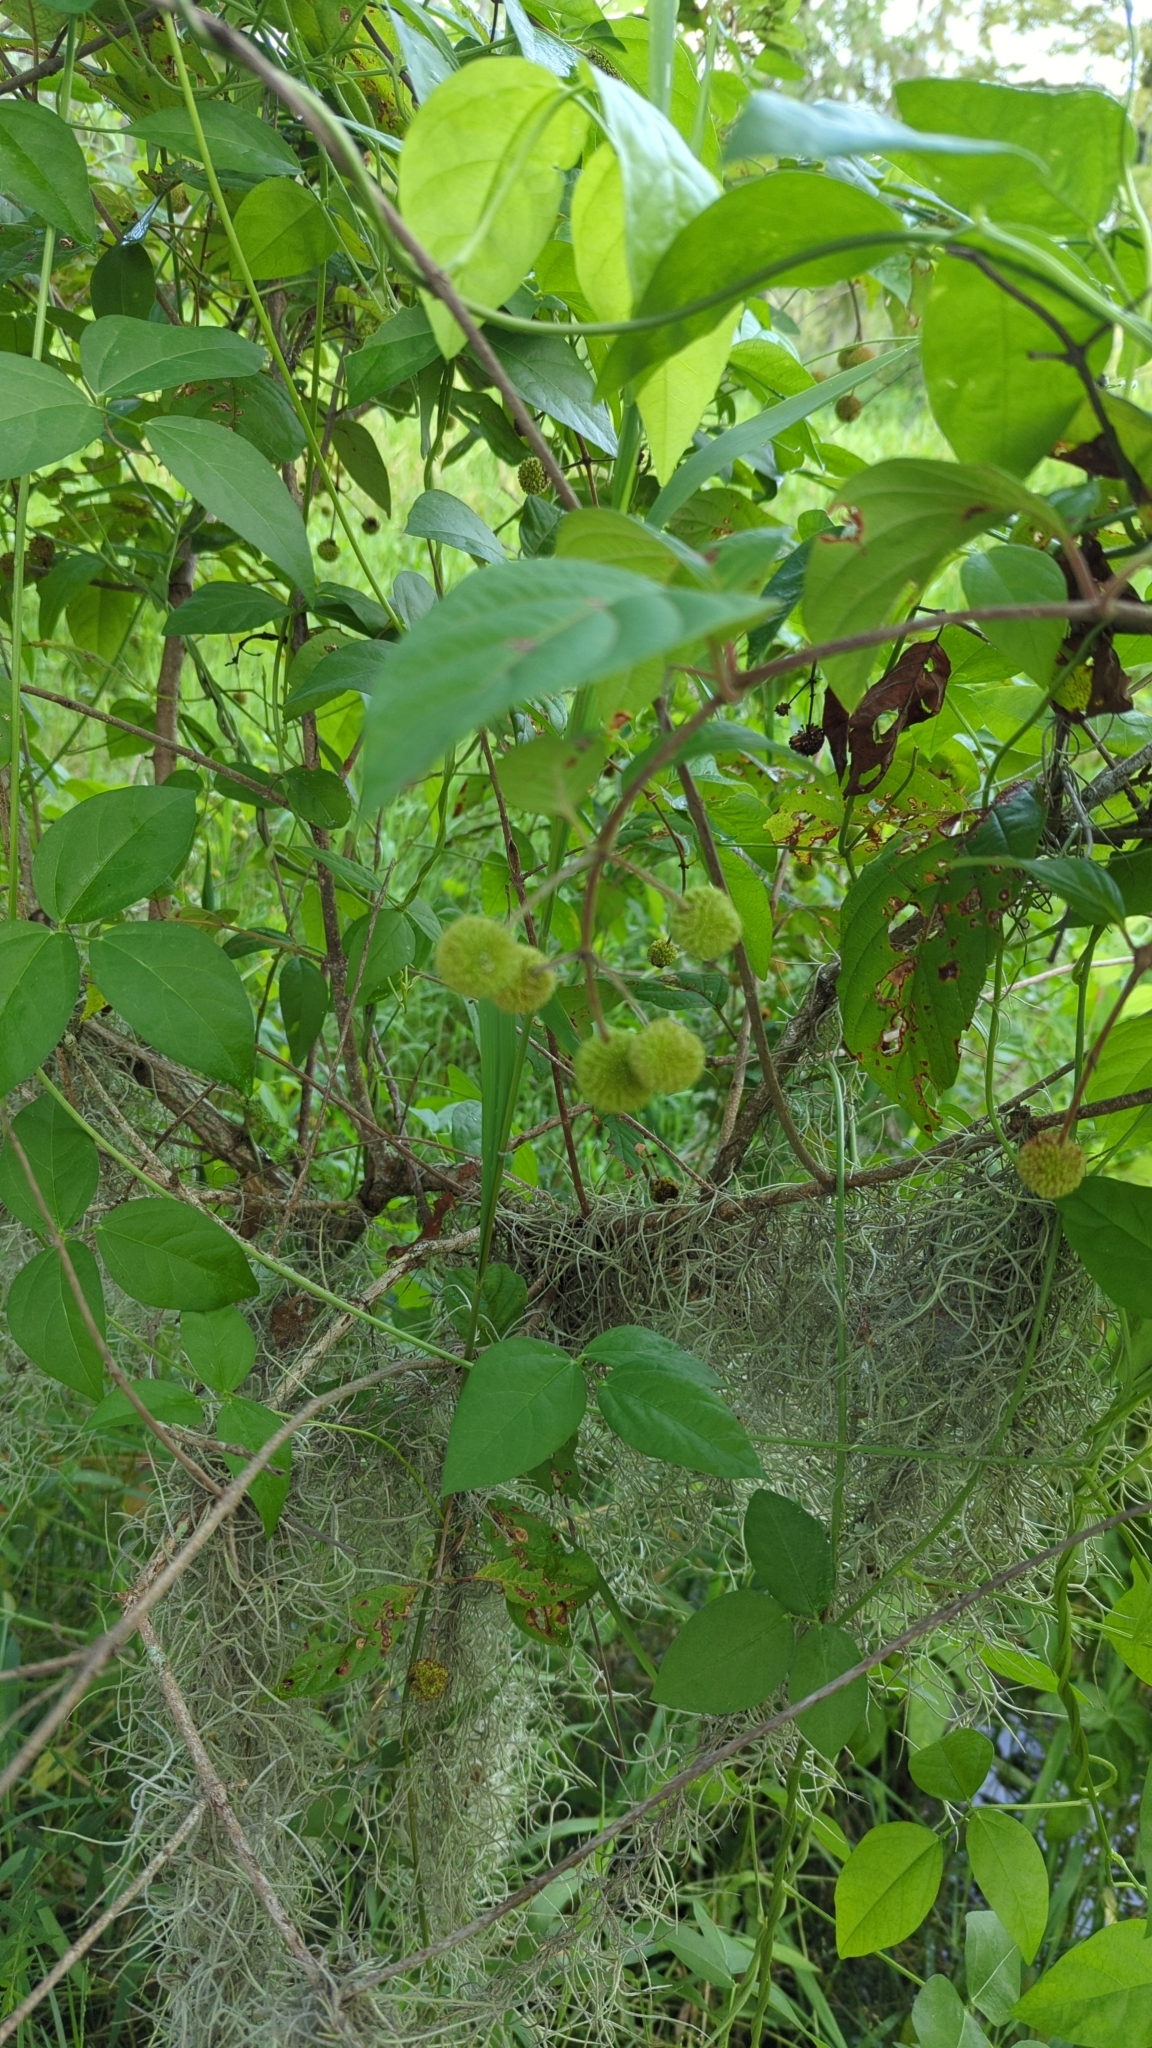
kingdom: Plantae
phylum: Tracheophyta
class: Magnoliopsida
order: Gentianales
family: Rubiaceae
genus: Cephalanthus
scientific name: Cephalanthus occidentalis
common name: Button-willow
